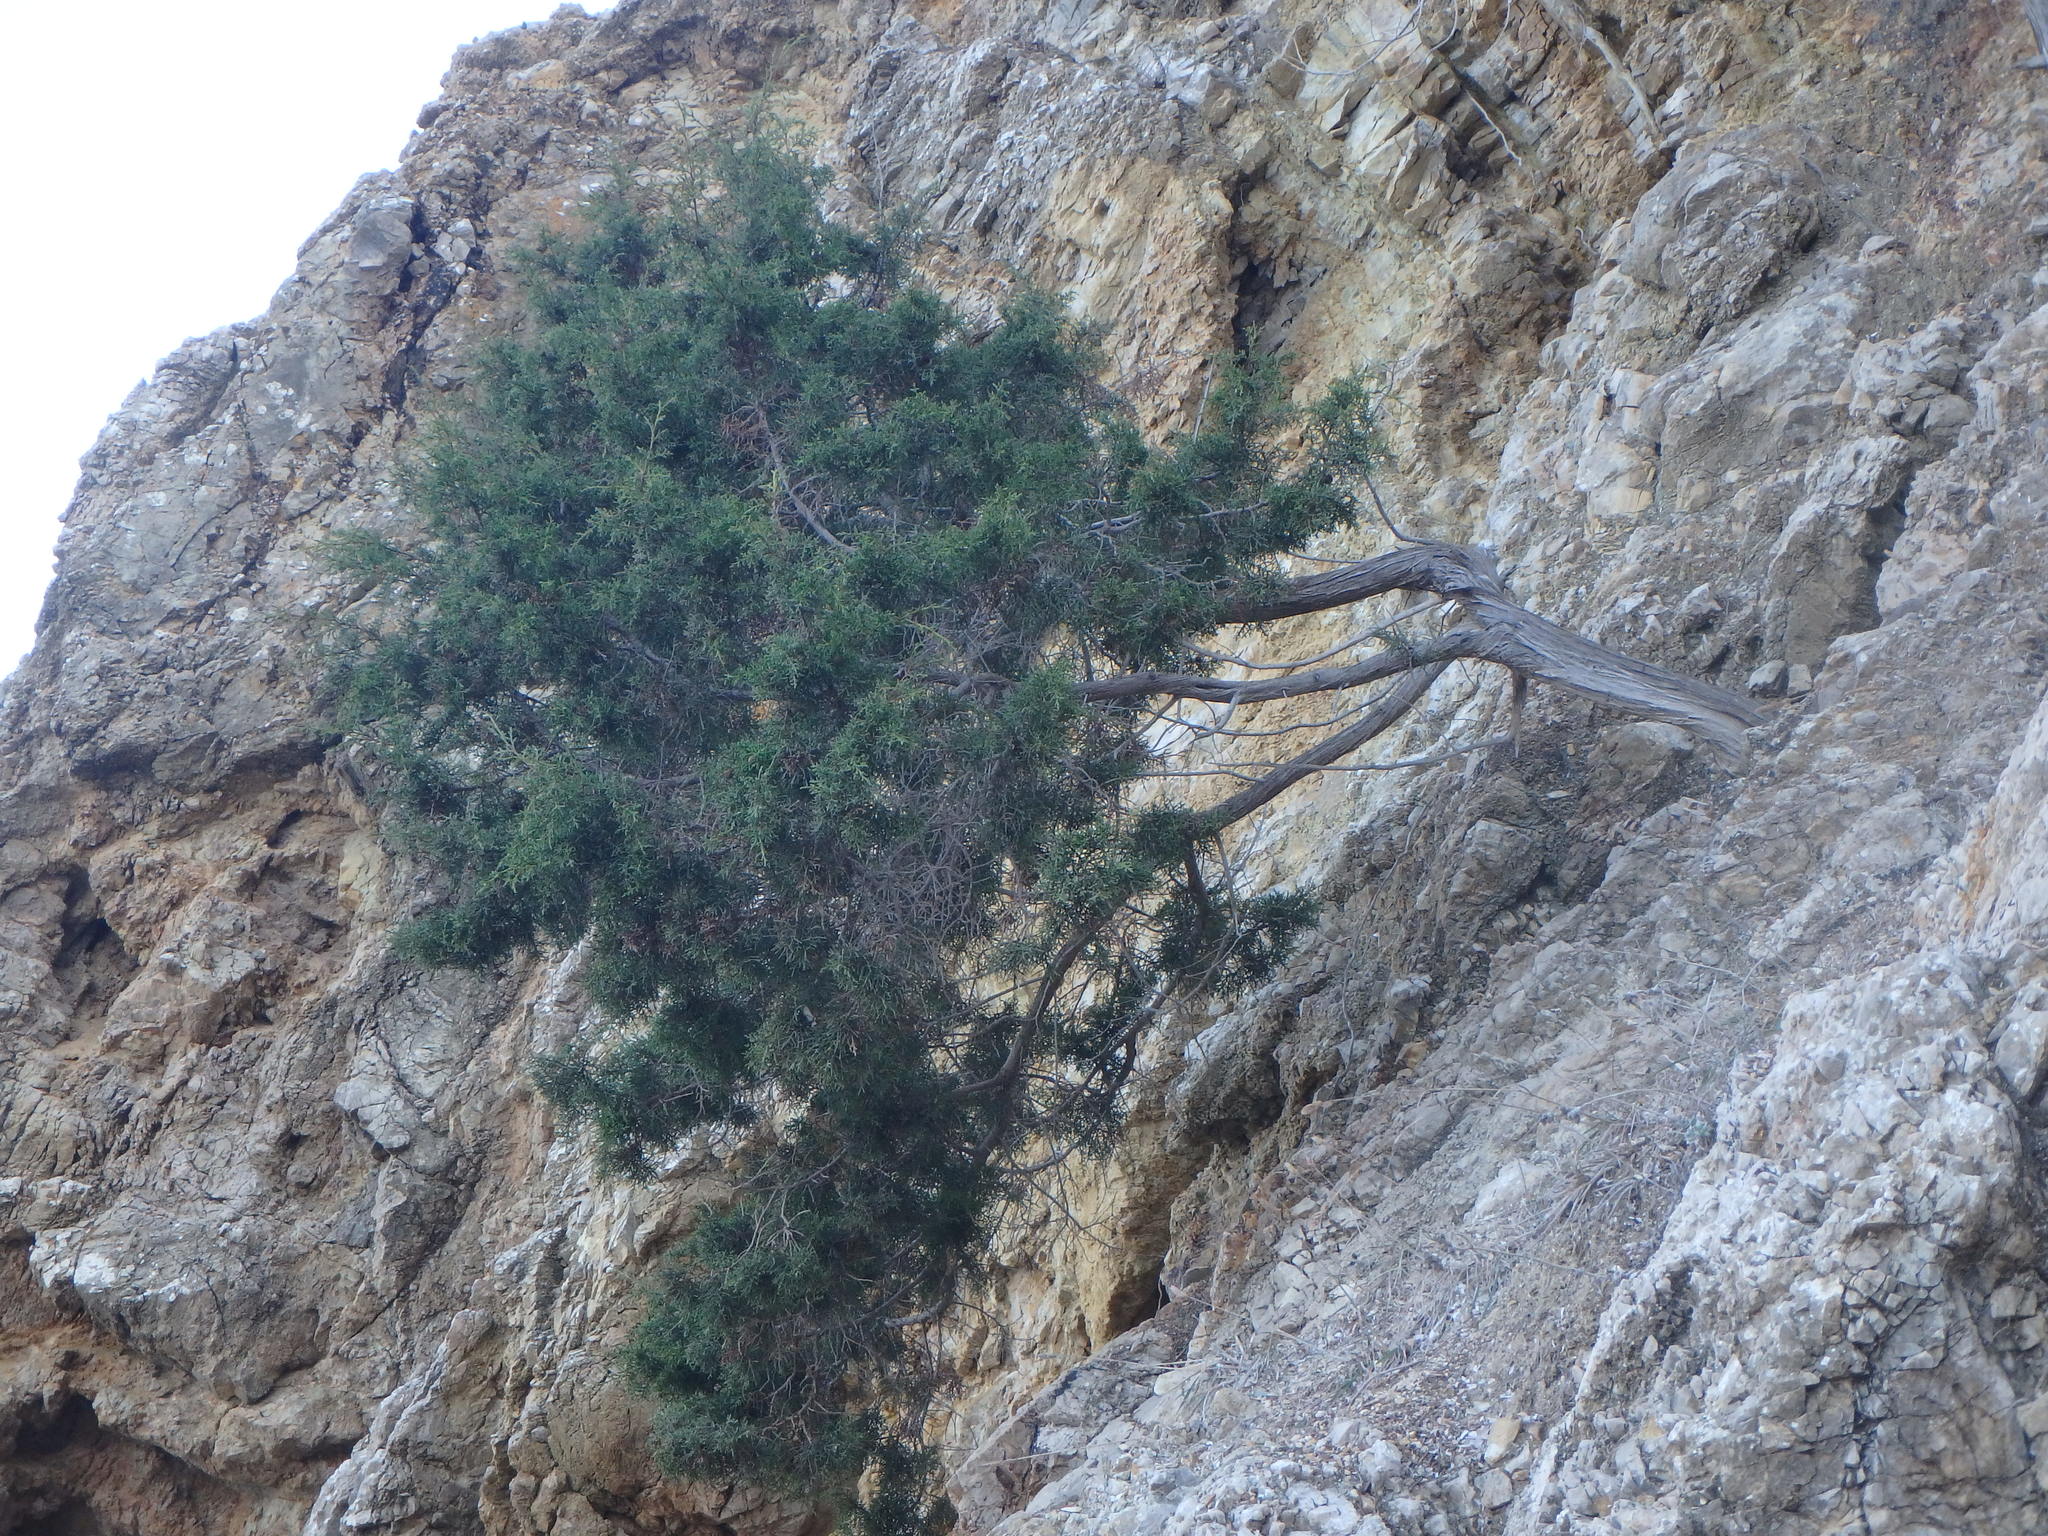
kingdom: Plantae
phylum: Tracheophyta
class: Pinopsida
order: Pinales
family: Cupressaceae
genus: Juniperus
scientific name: Juniperus phoenicea
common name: Phoenician juniper
